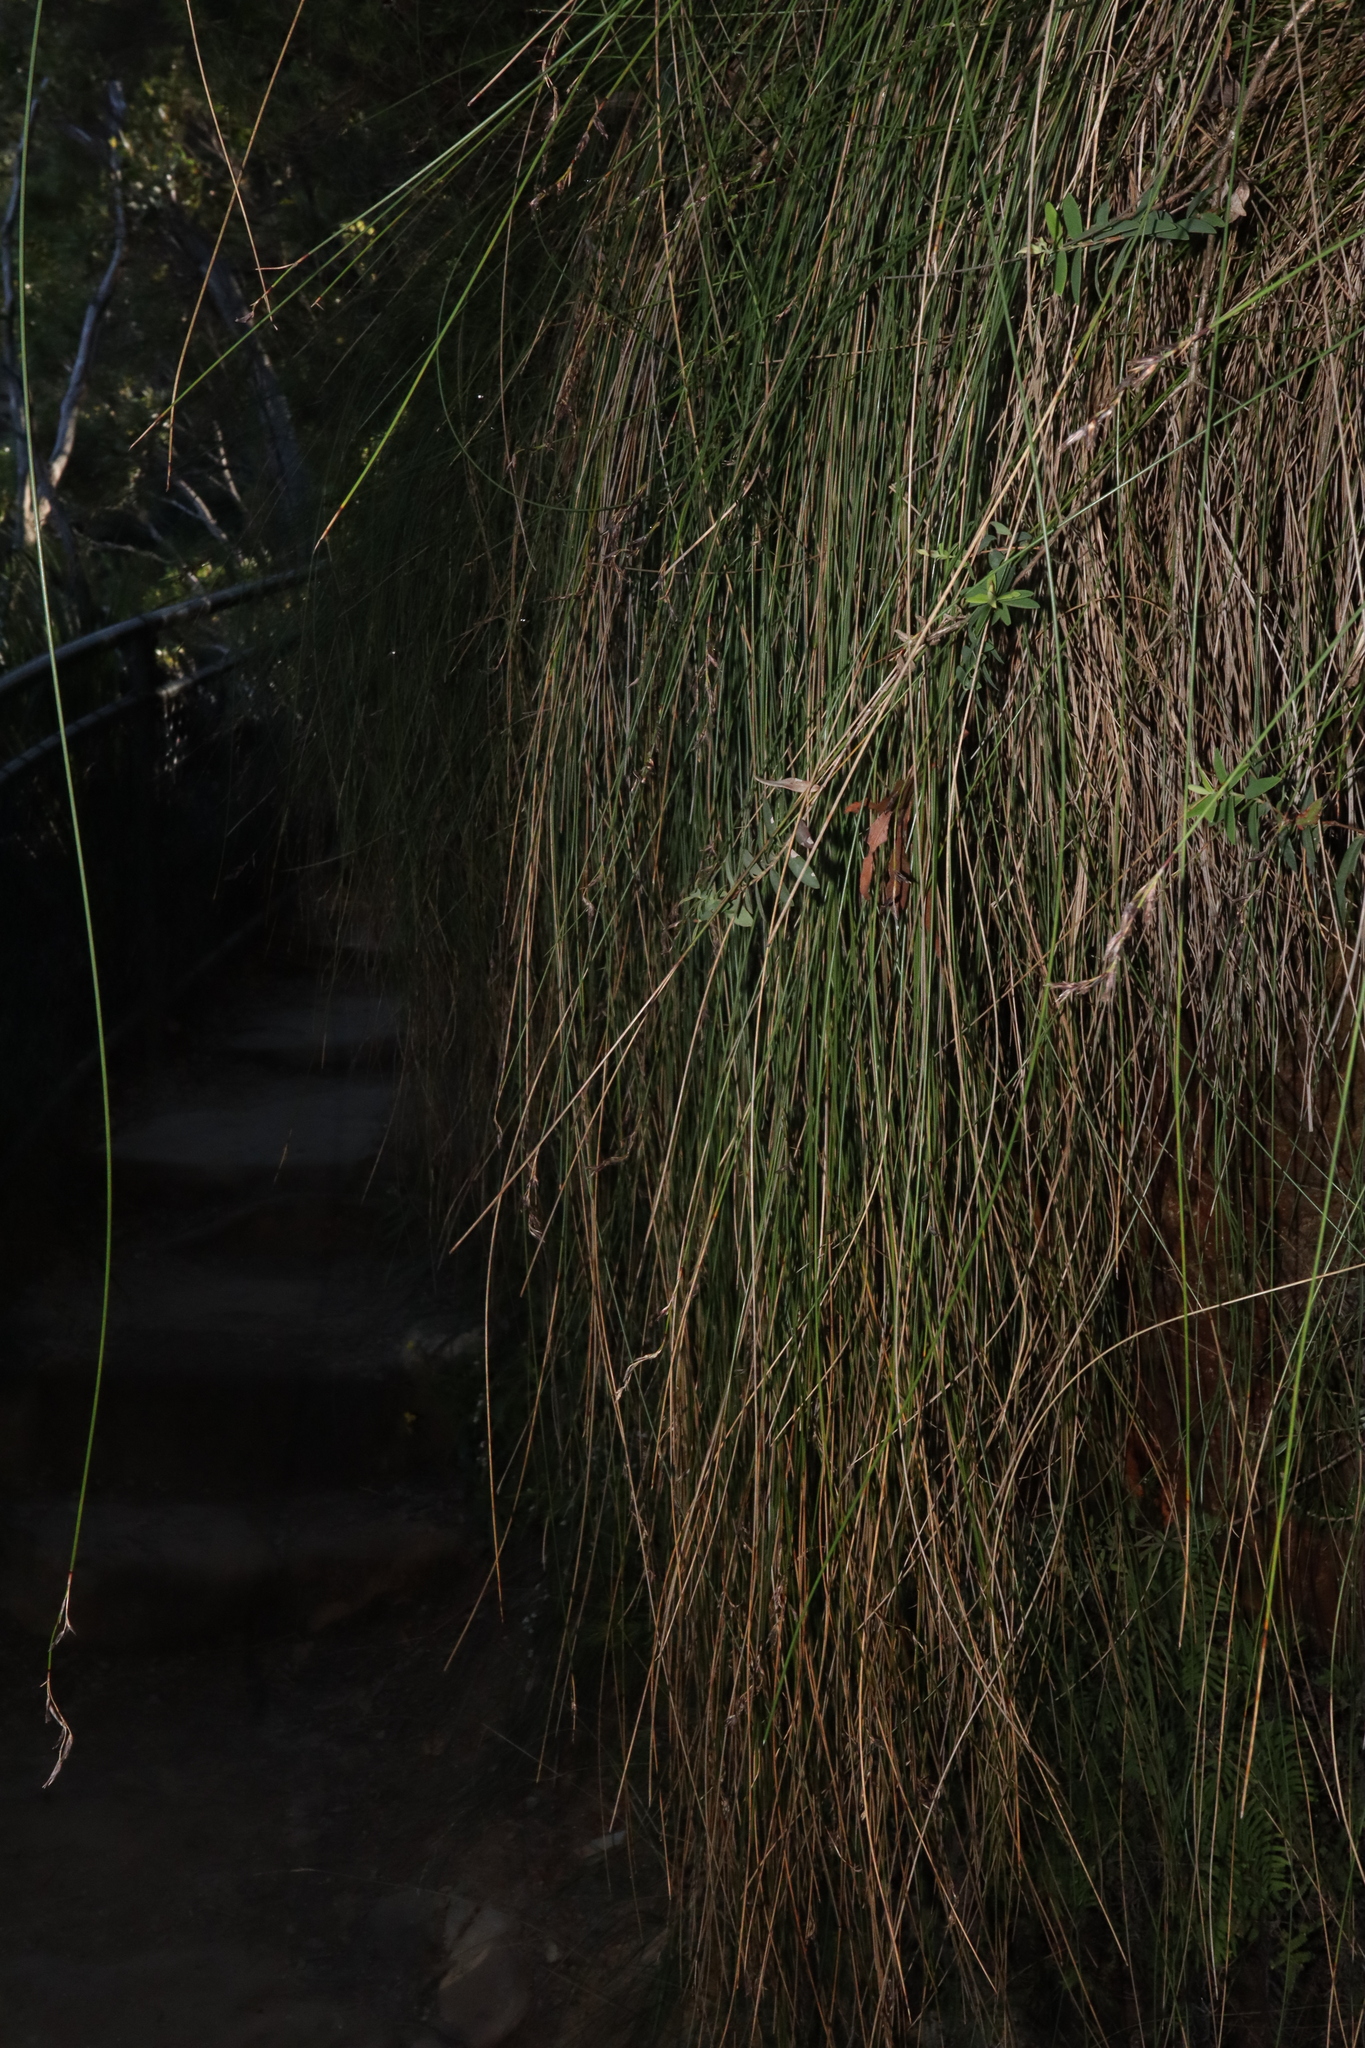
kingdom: Plantae
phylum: Tracheophyta
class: Liliopsida
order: Poales
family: Cyperaceae
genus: Schoenus
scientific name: Schoenus melanostachys
